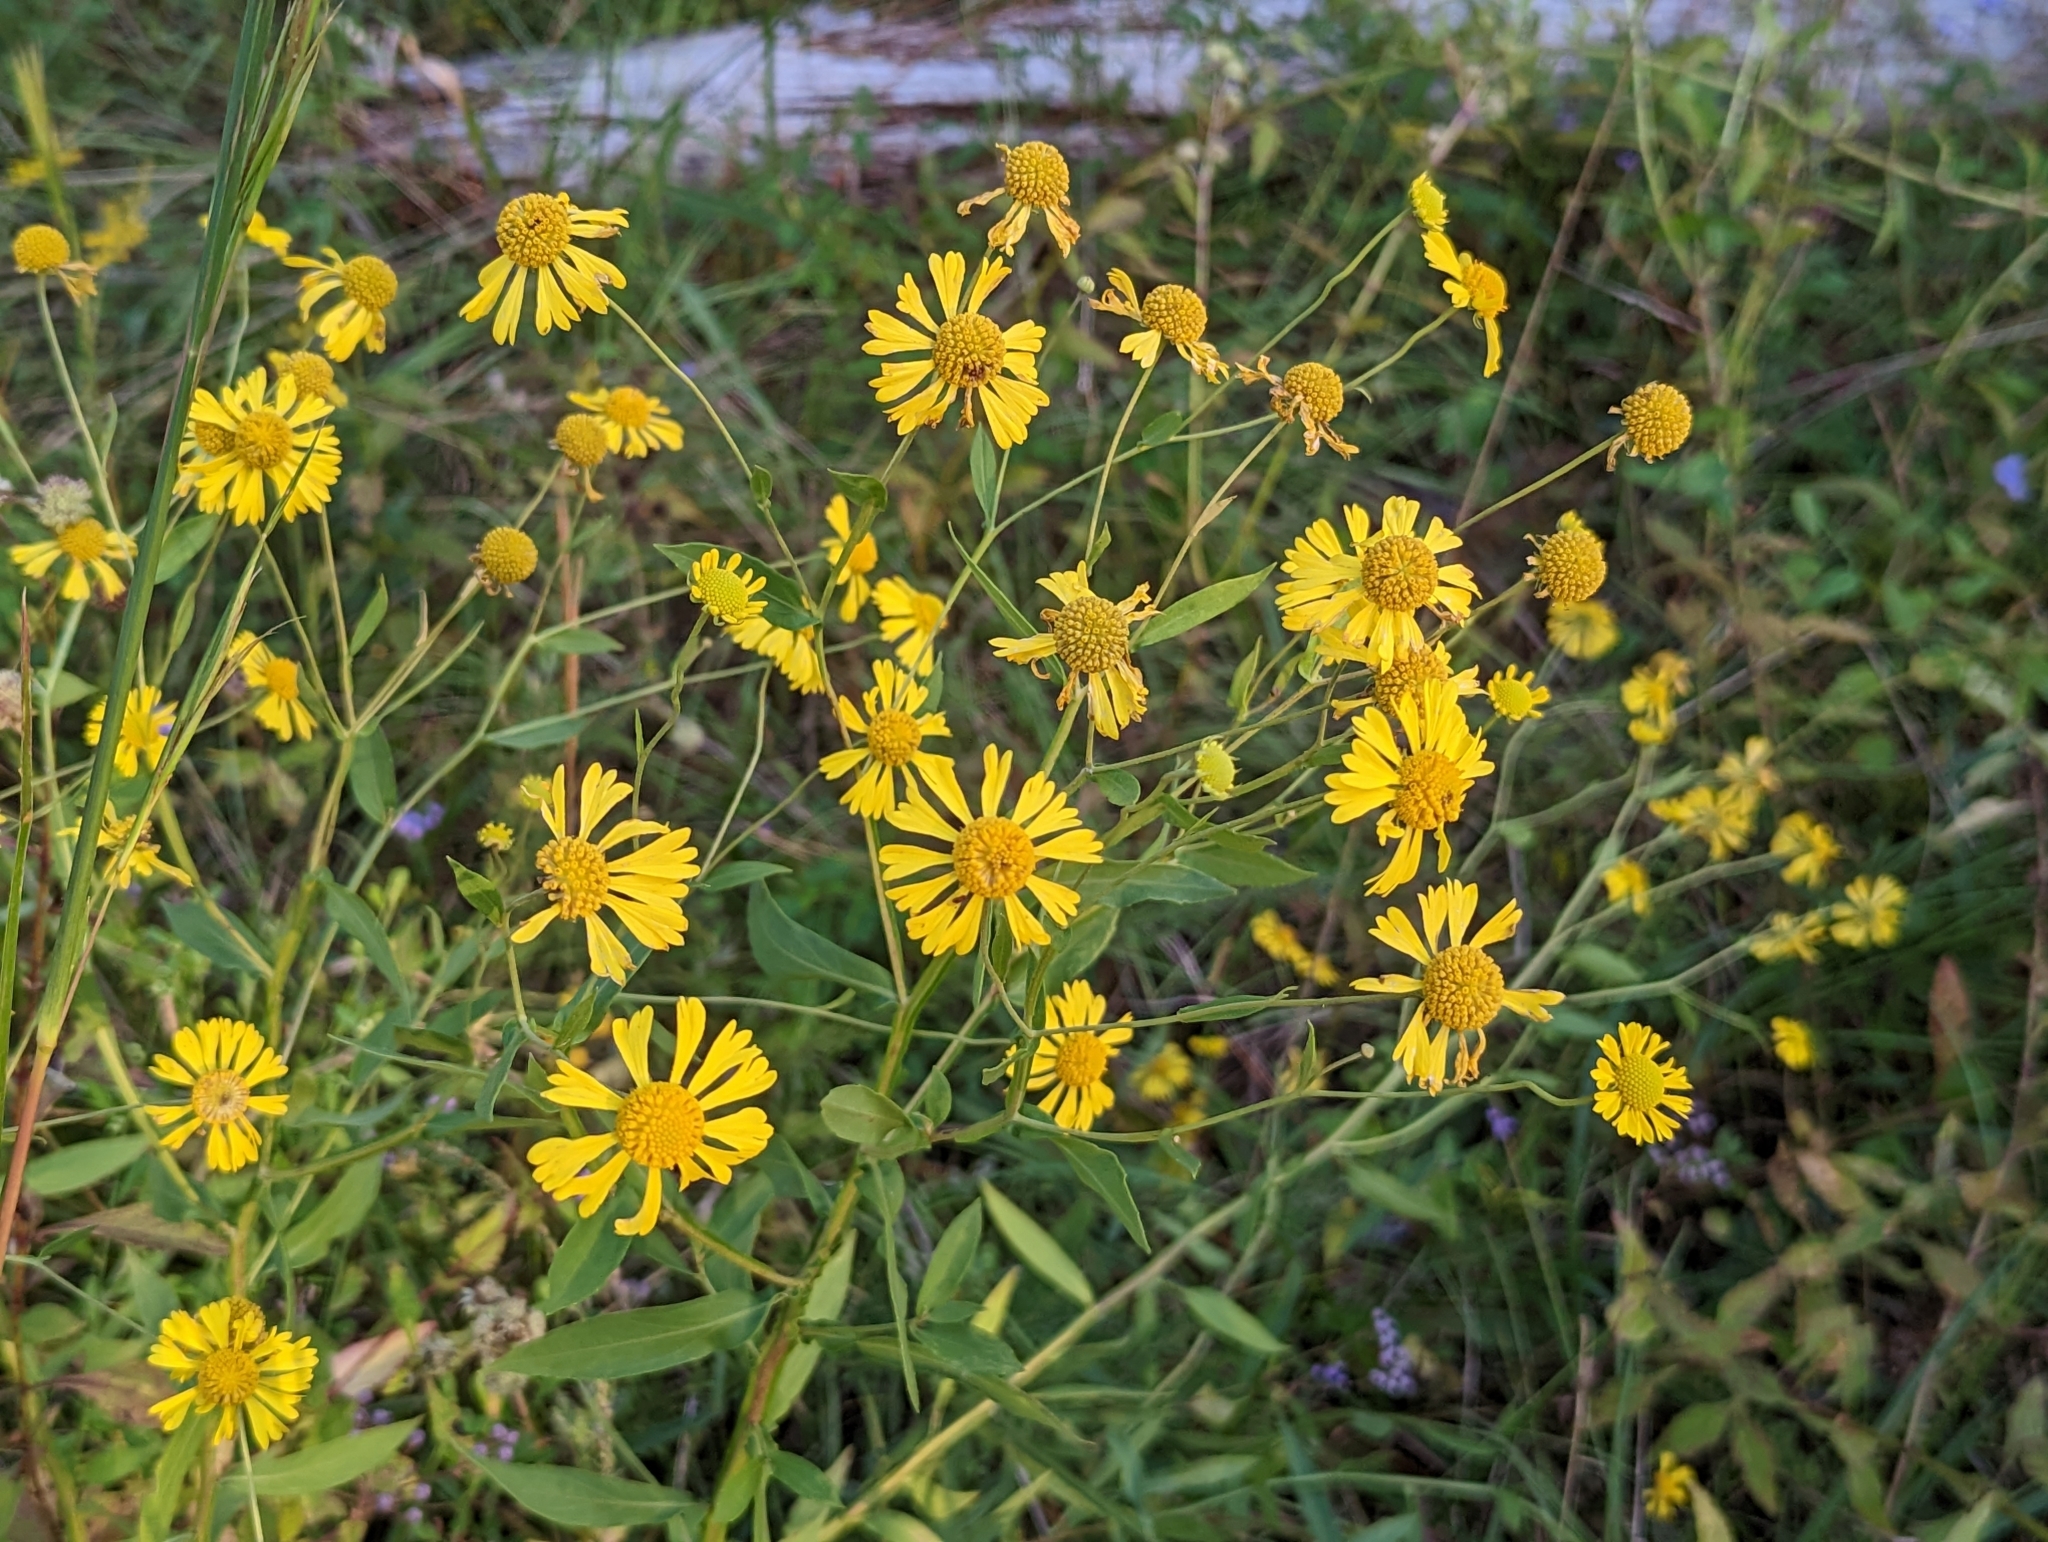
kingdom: Plantae
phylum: Tracheophyta
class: Magnoliopsida
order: Asterales
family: Asteraceae
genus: Helenium
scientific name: Helenium autumnale
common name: Sneezeweed
